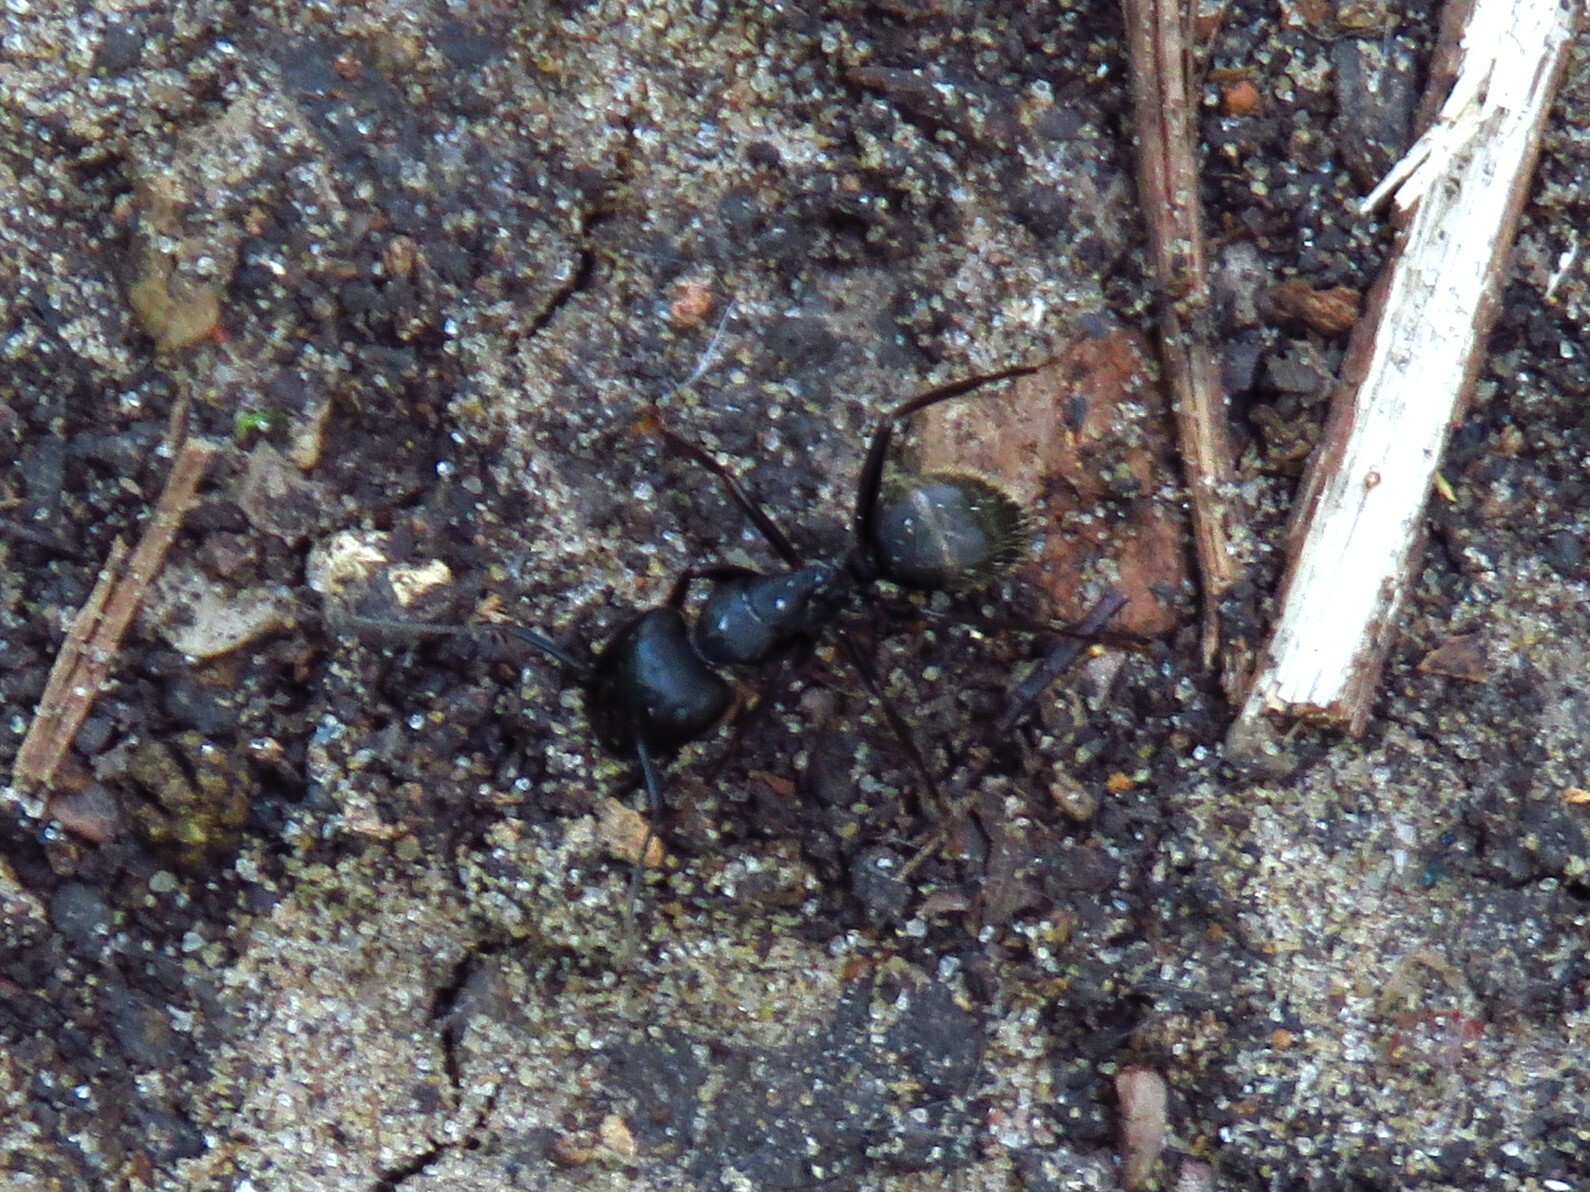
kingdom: Animalia
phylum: Arthropoda
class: Insecta
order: Hymenoptera
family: Formicidae
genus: Camponotus
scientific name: Camponotus pennsylvanicus
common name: Black carpenter ant
